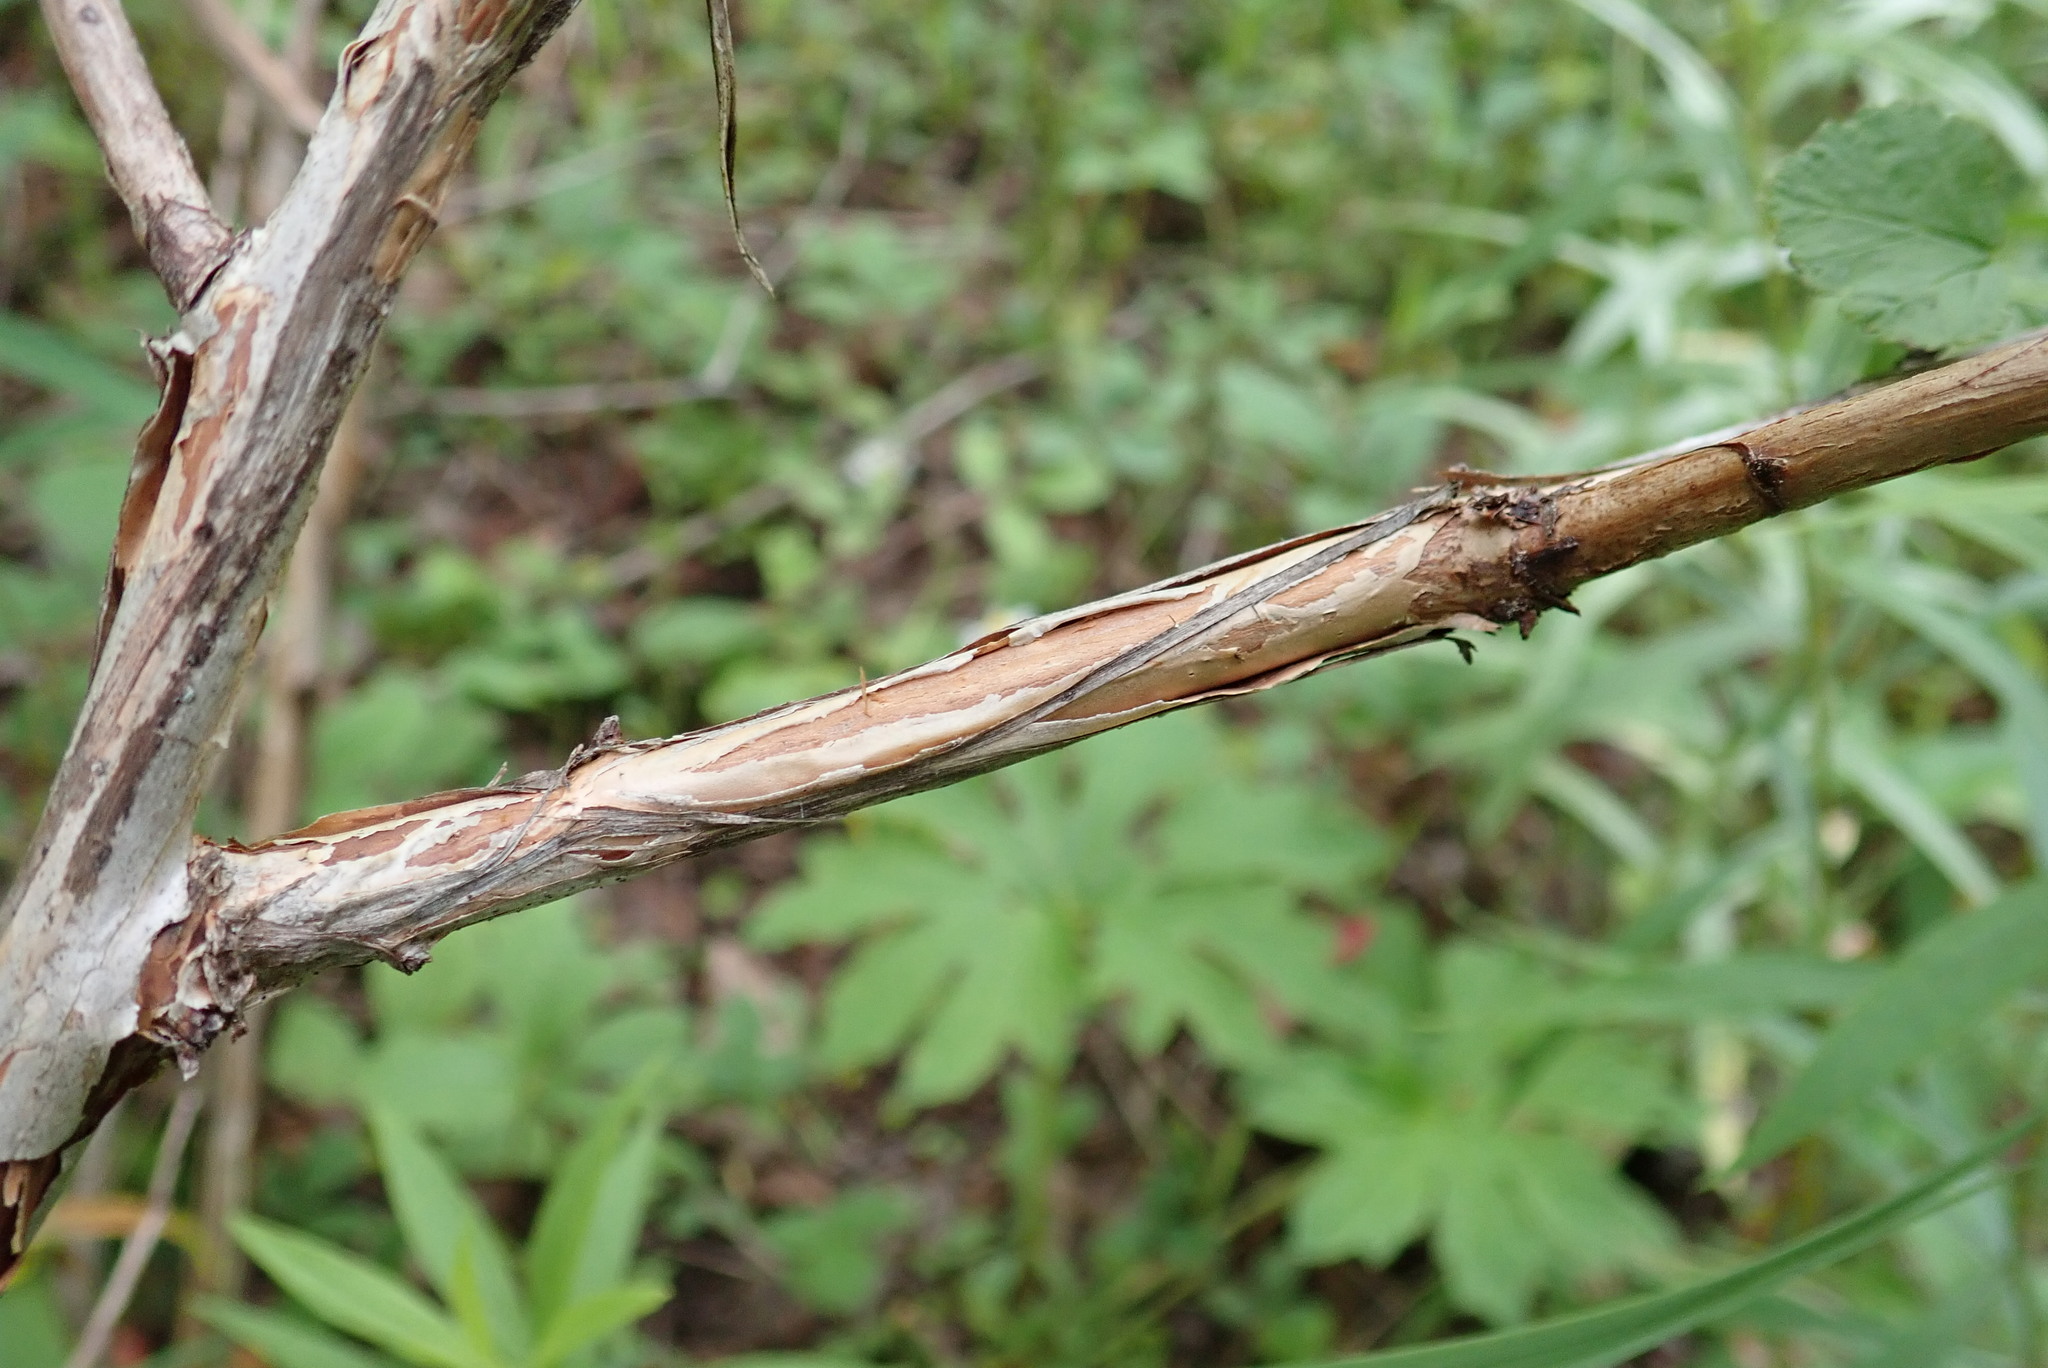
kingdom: Plantae
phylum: Tracheophyta
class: Magnoliopsida
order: Rosales
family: Rosaceae
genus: Physocarpus
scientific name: Physocarpus opulifolius
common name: Ninebark
